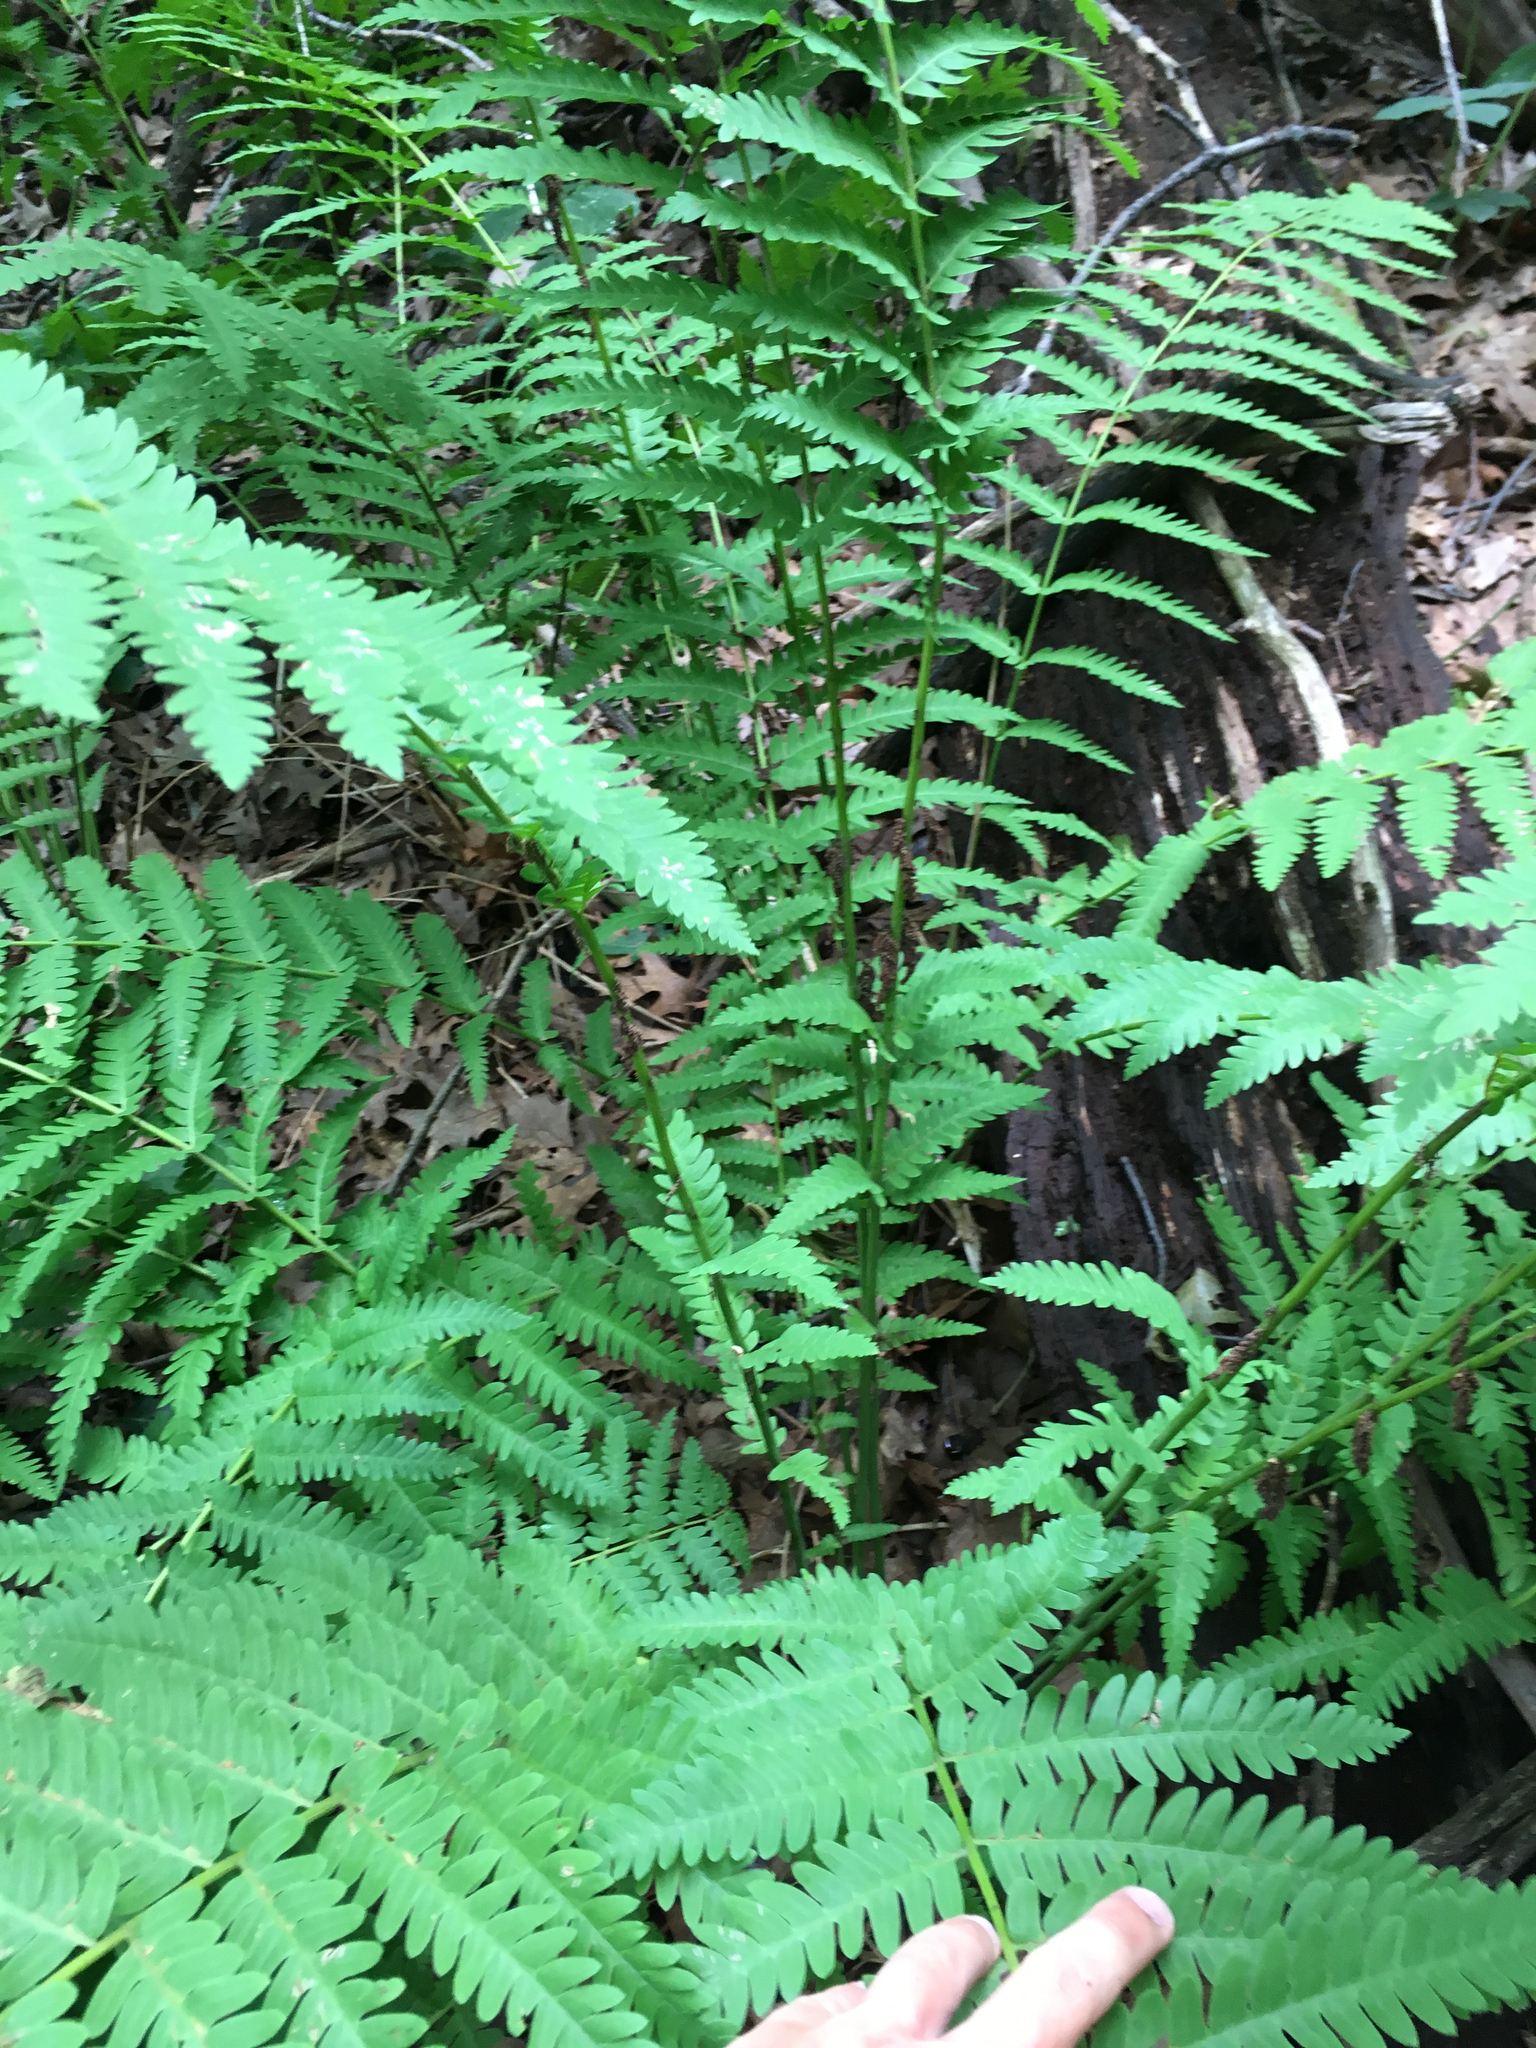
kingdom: Plantae
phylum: Tracheophyta
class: Polypodiopsida
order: Osmundales
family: Osmundaceae
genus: Claytosmunda
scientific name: Claytosmunda claytoniana
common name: Clayton's fern
